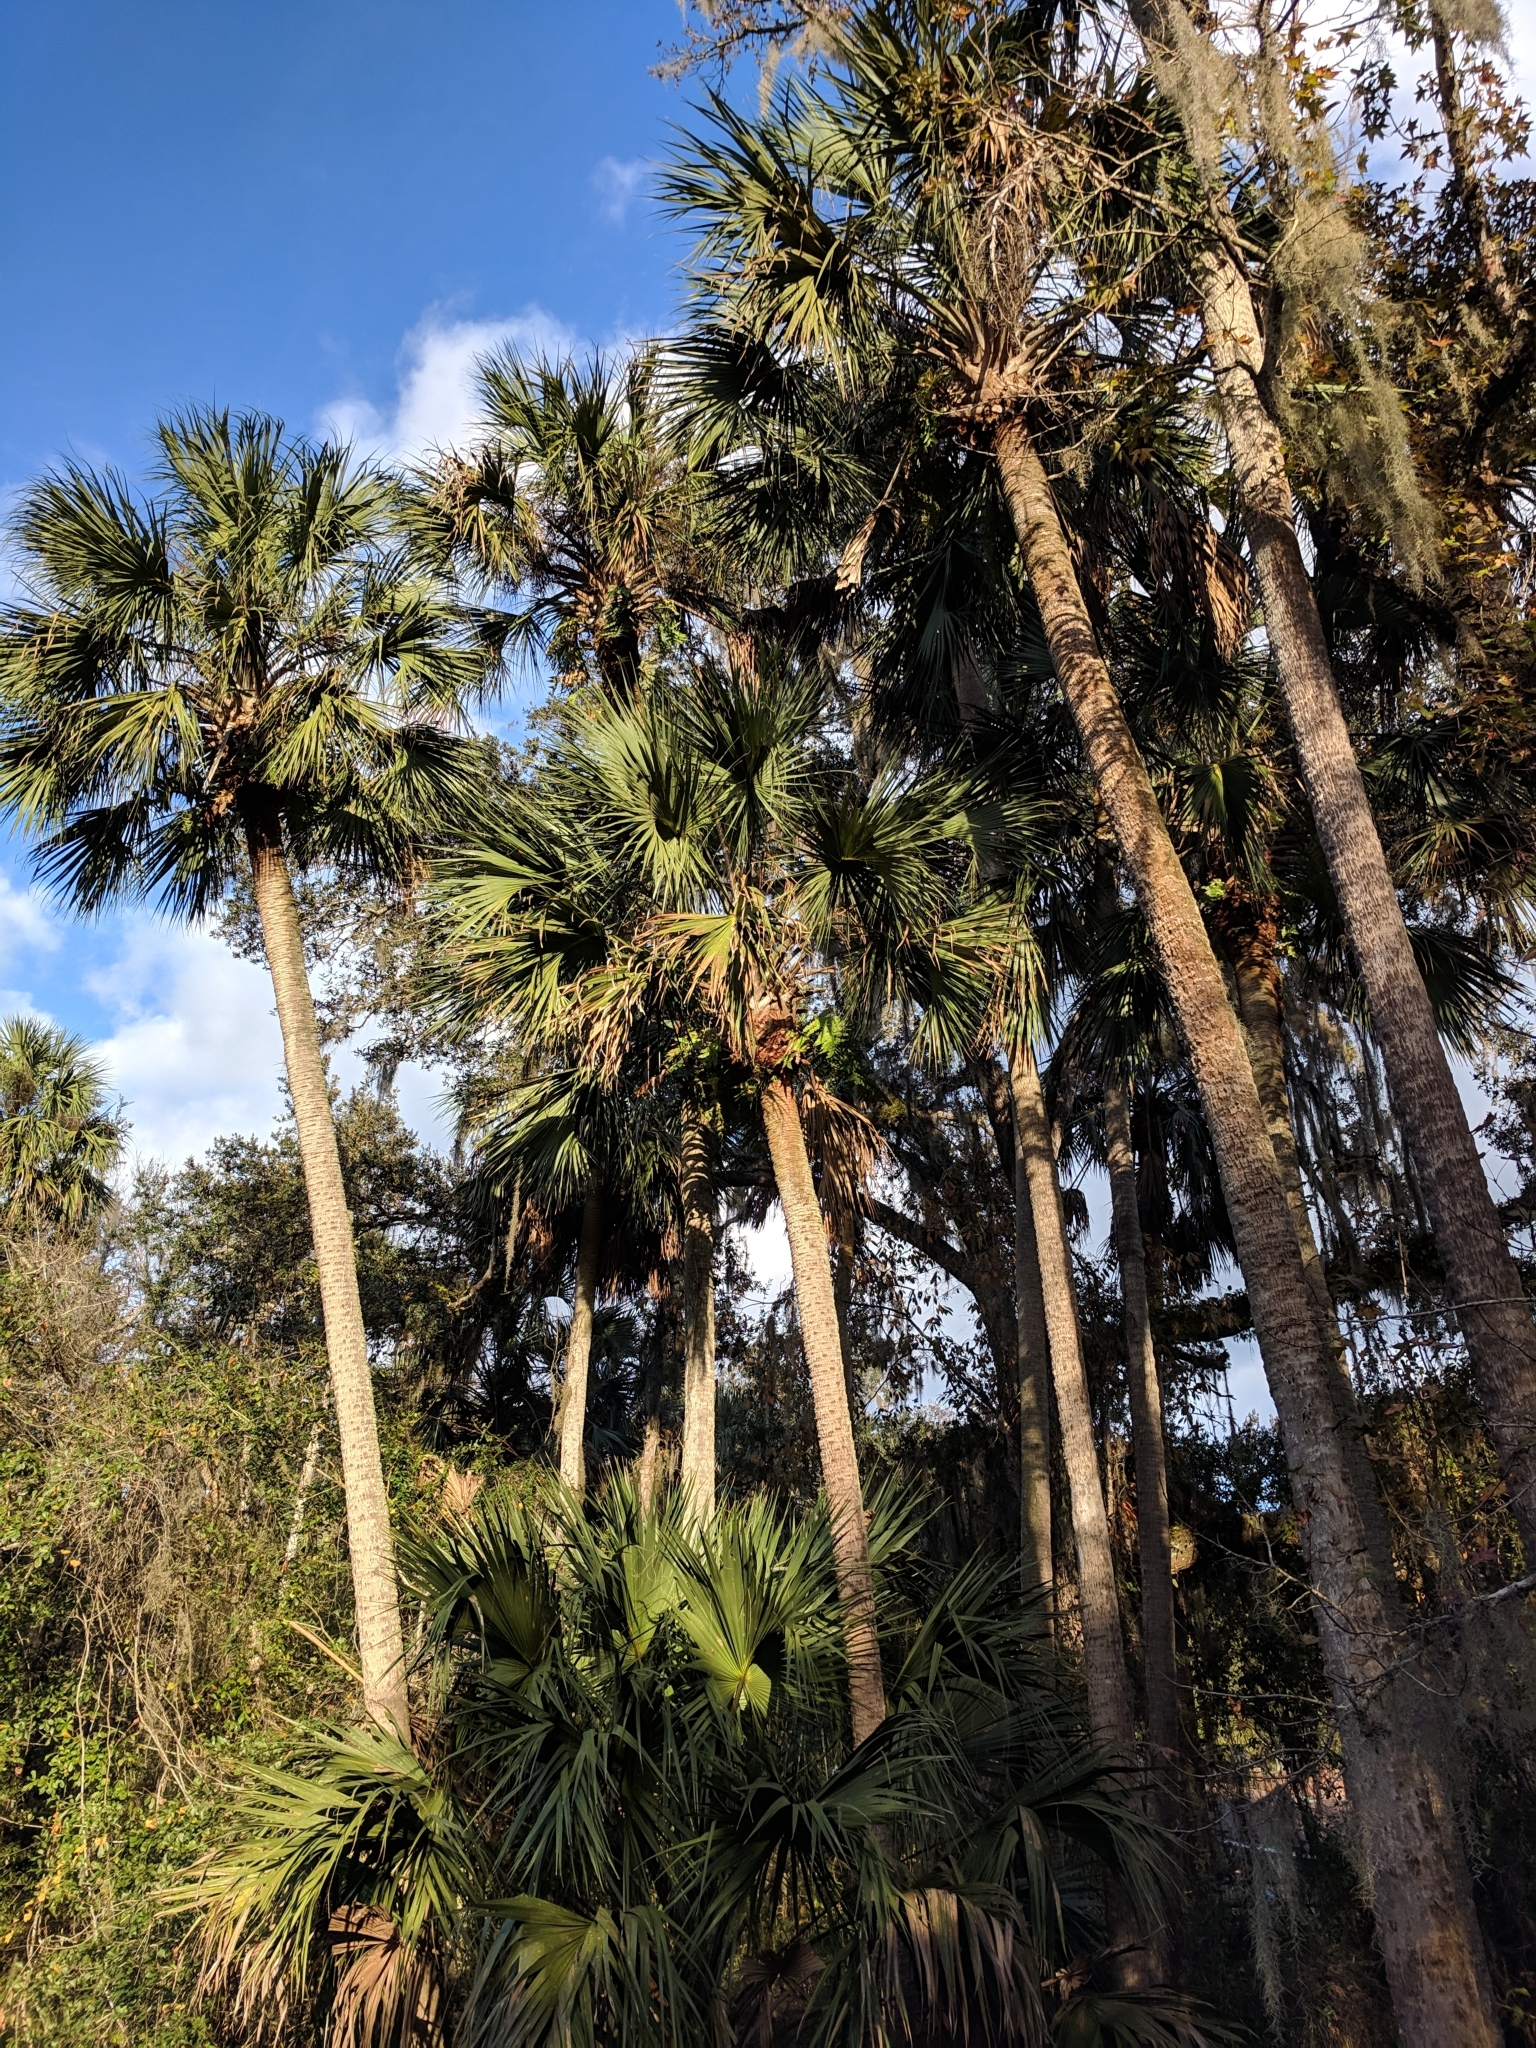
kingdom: Plantae
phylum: Tracheophyta
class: Liliopsida
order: Arecales
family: Arecaceae
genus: Sabal
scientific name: Sabal palmetto
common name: Blue palmetto
